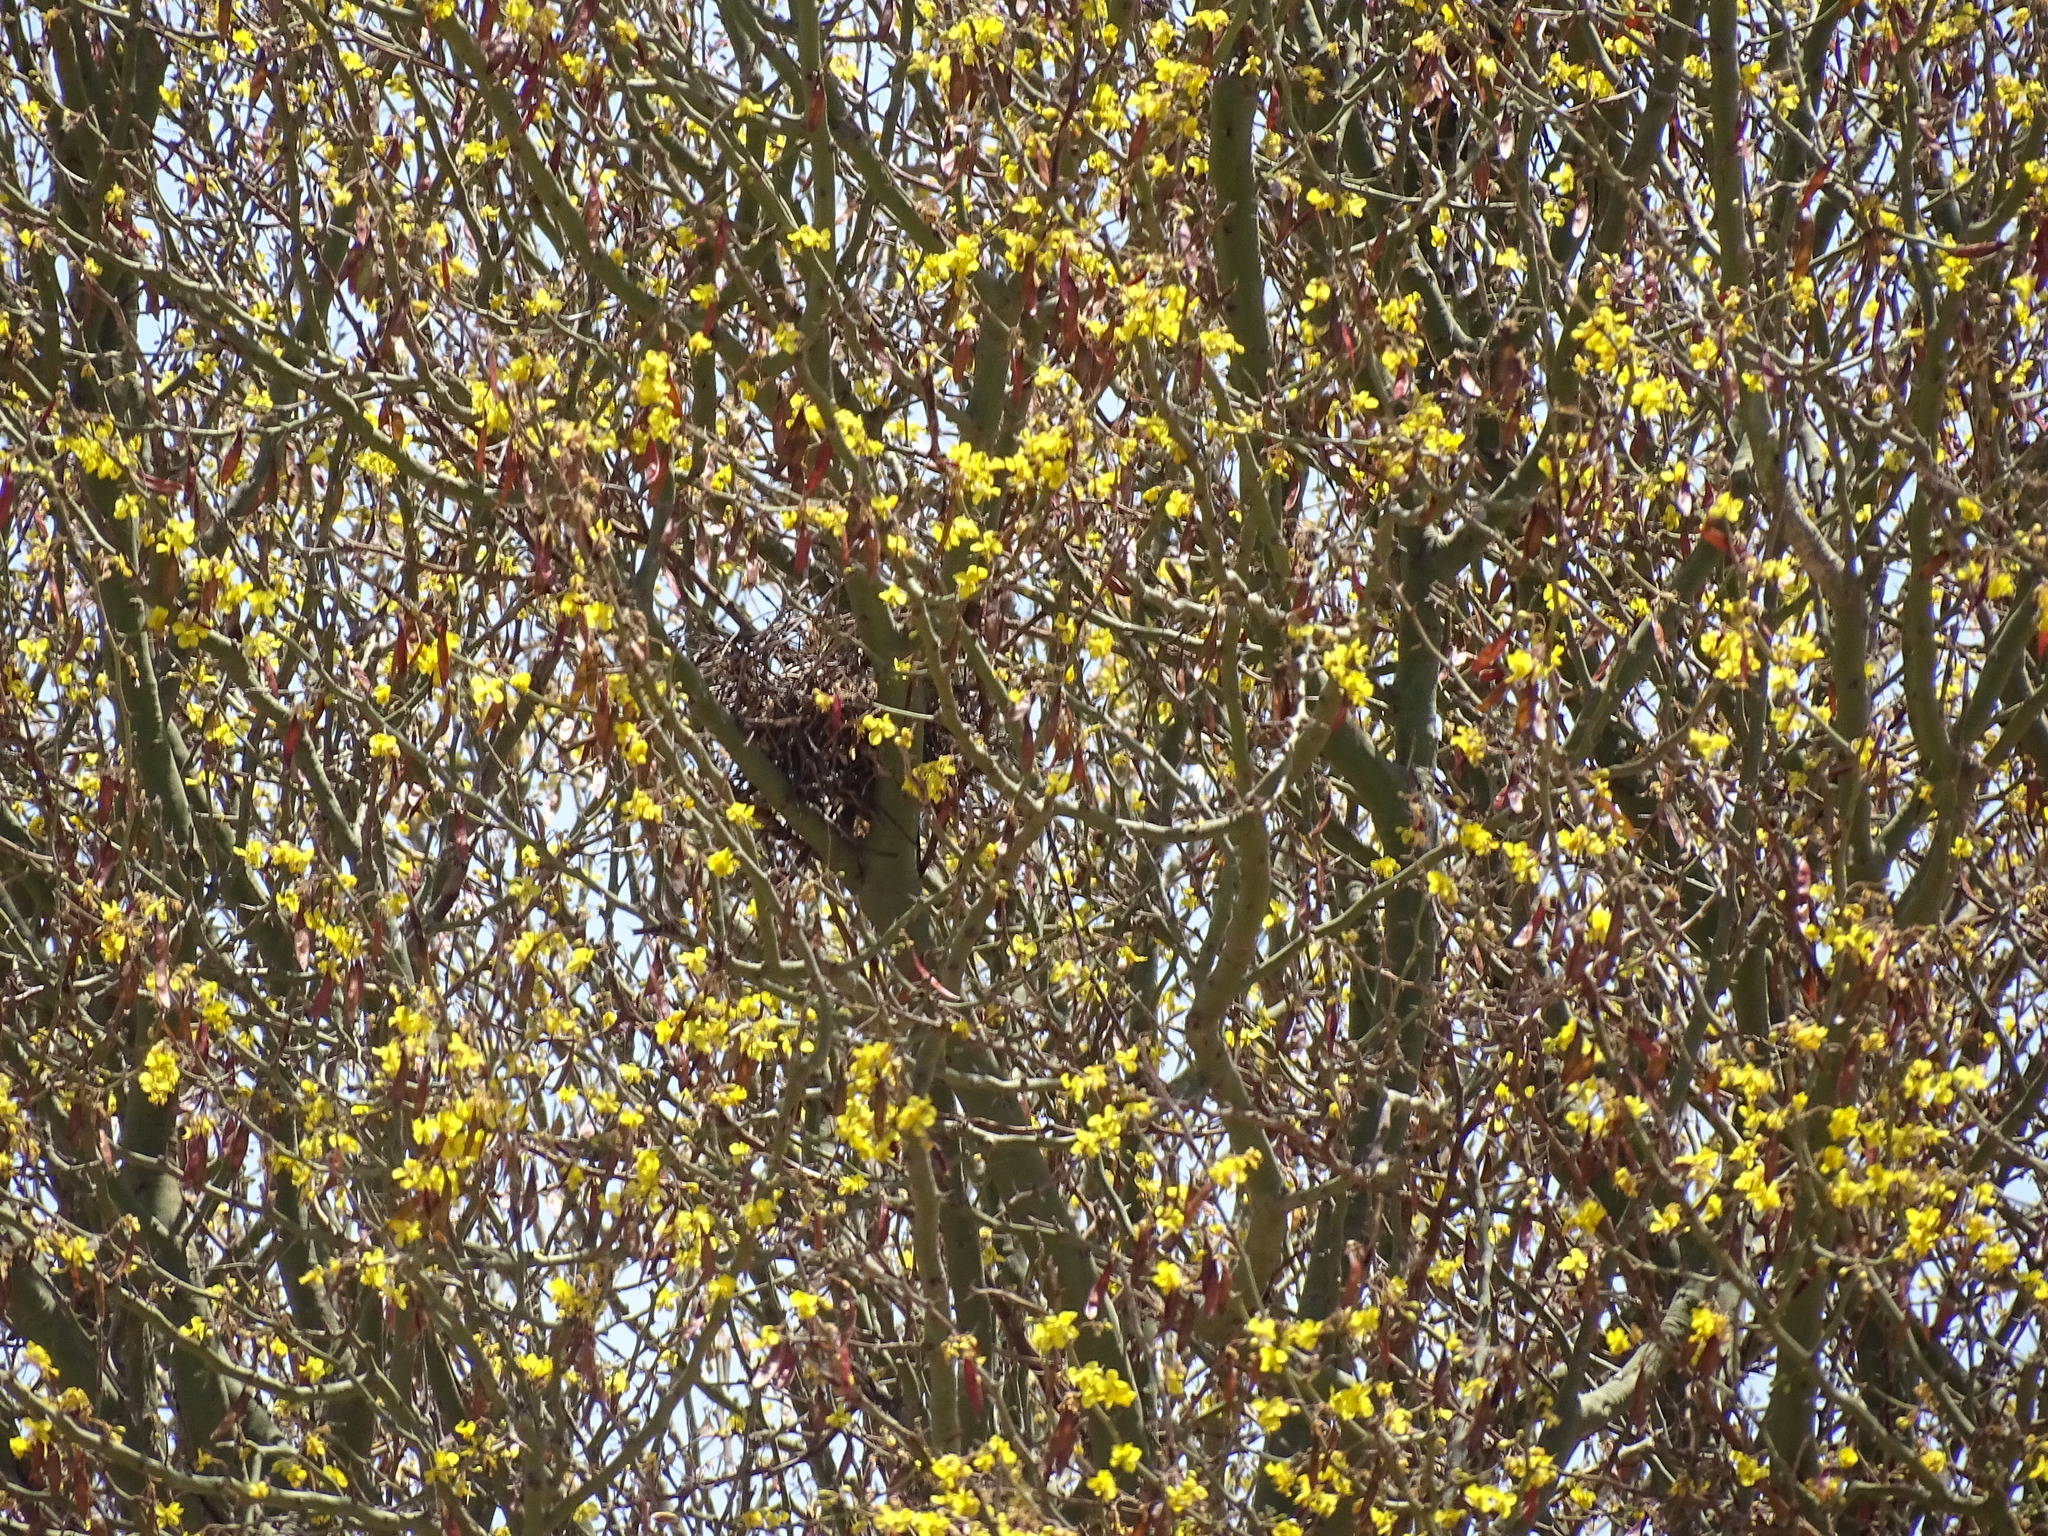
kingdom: Plantae
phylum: Tracheophyta
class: Magnoliopsida
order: Fabales
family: Fabaceae
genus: Parkinsonia
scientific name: Parkinsonia praecox
